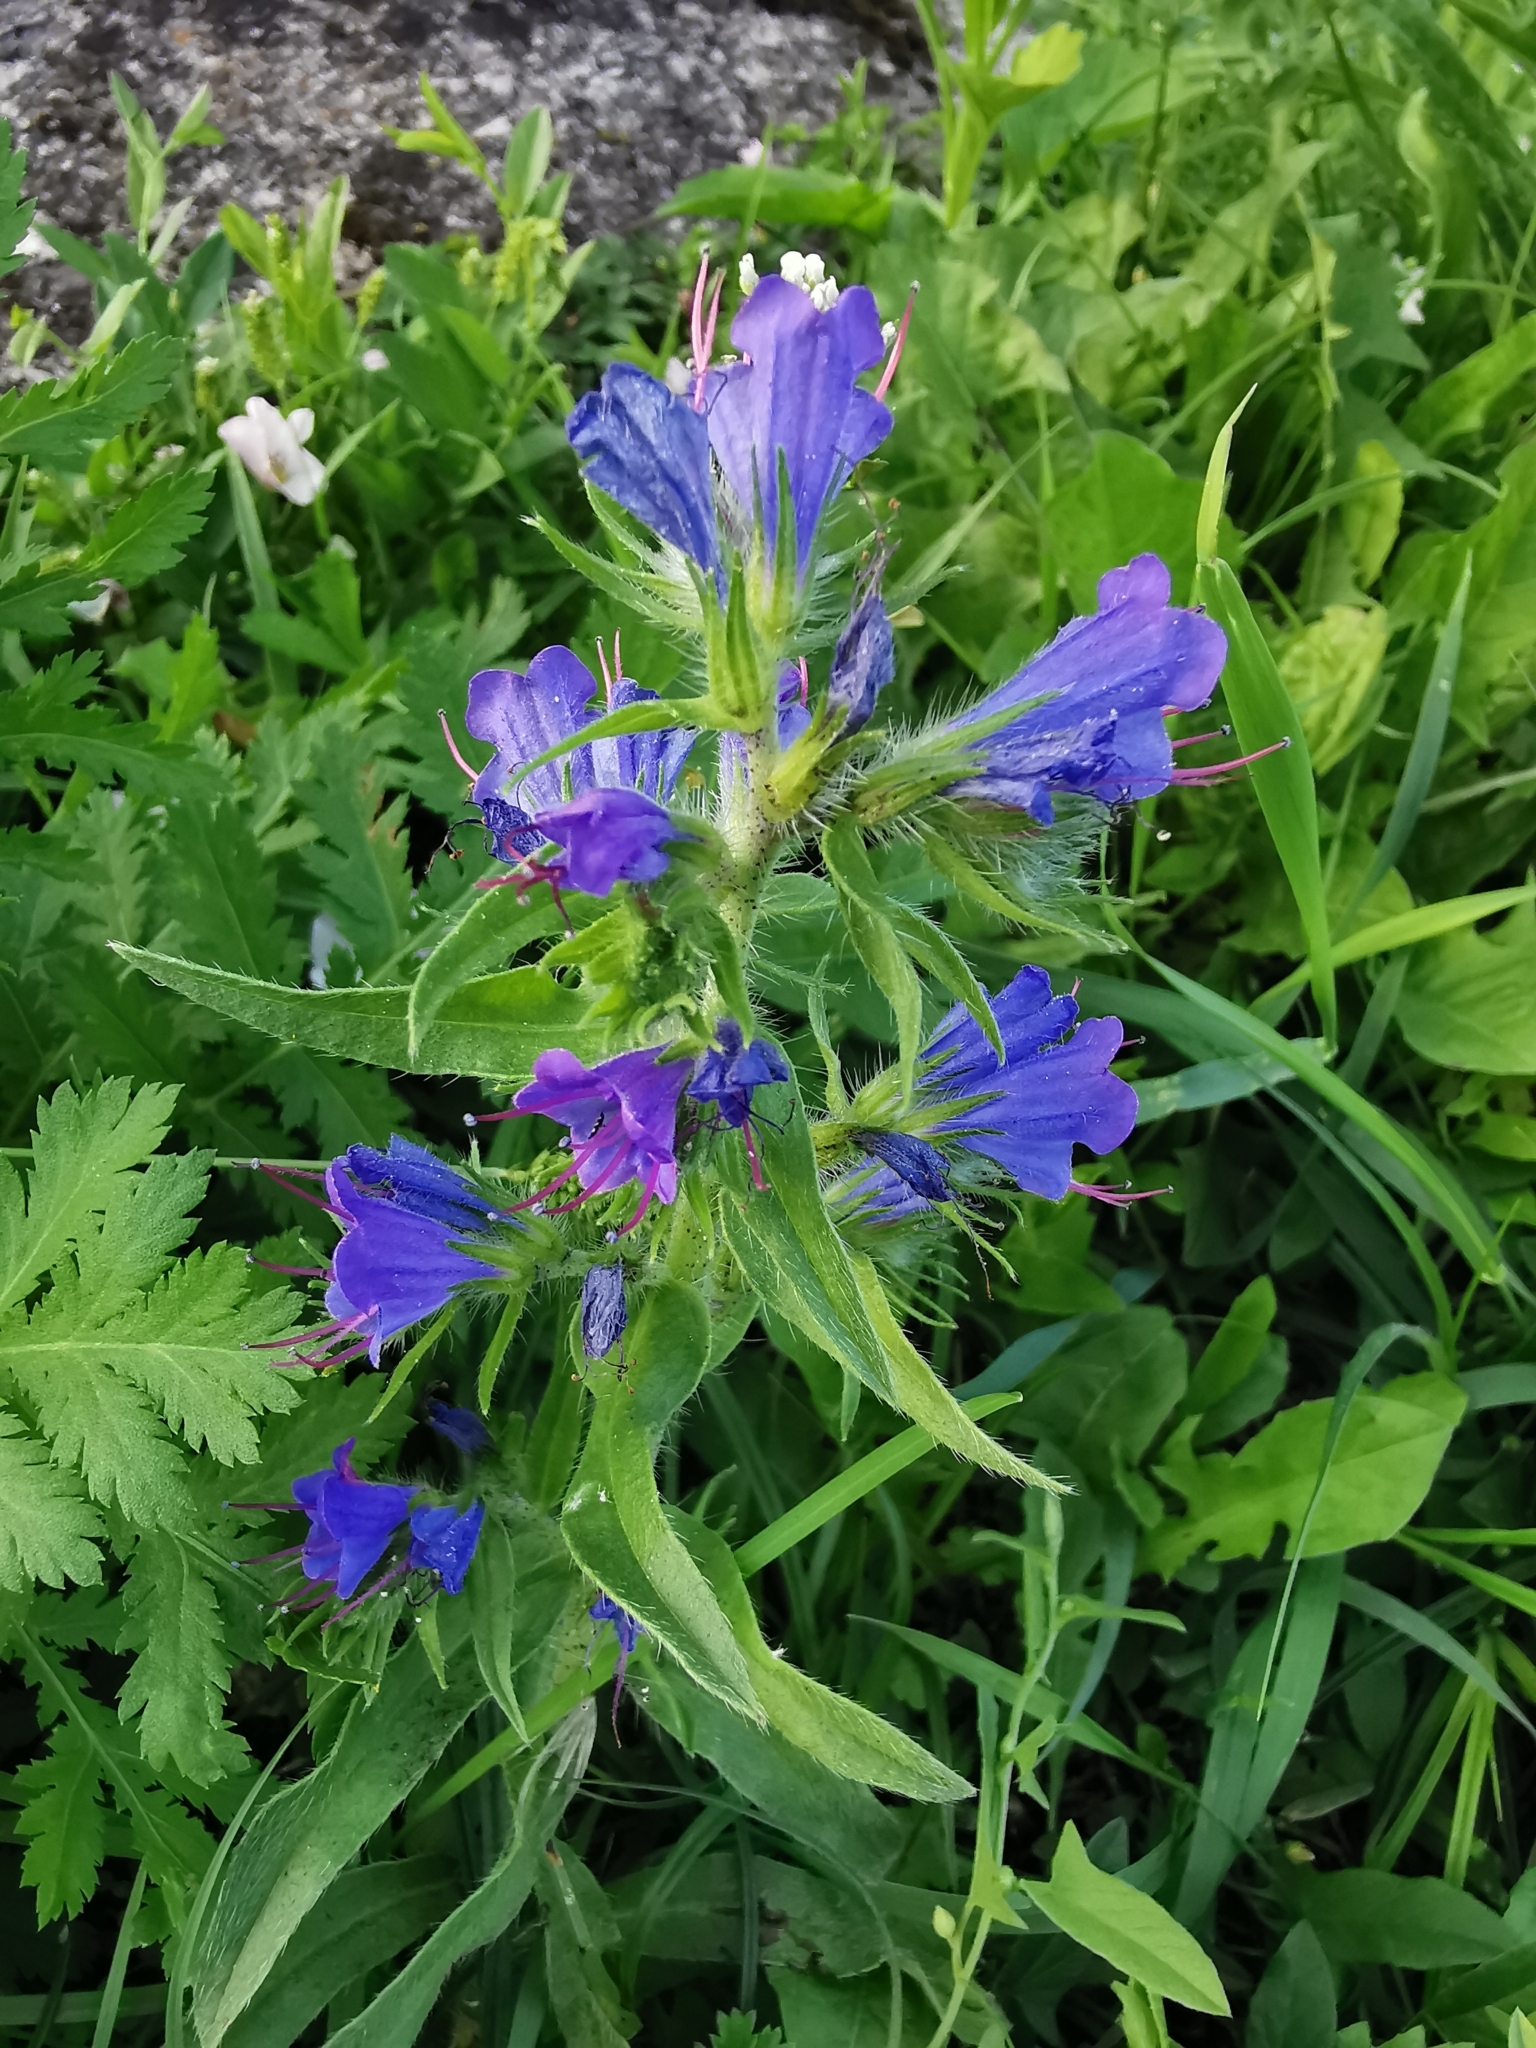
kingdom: Plantae
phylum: Tracheophyta
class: Magnoliopsida
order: Boraginales
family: Boraginaceae
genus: Echium
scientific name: Echium vulgare
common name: Common viper's bugloss
